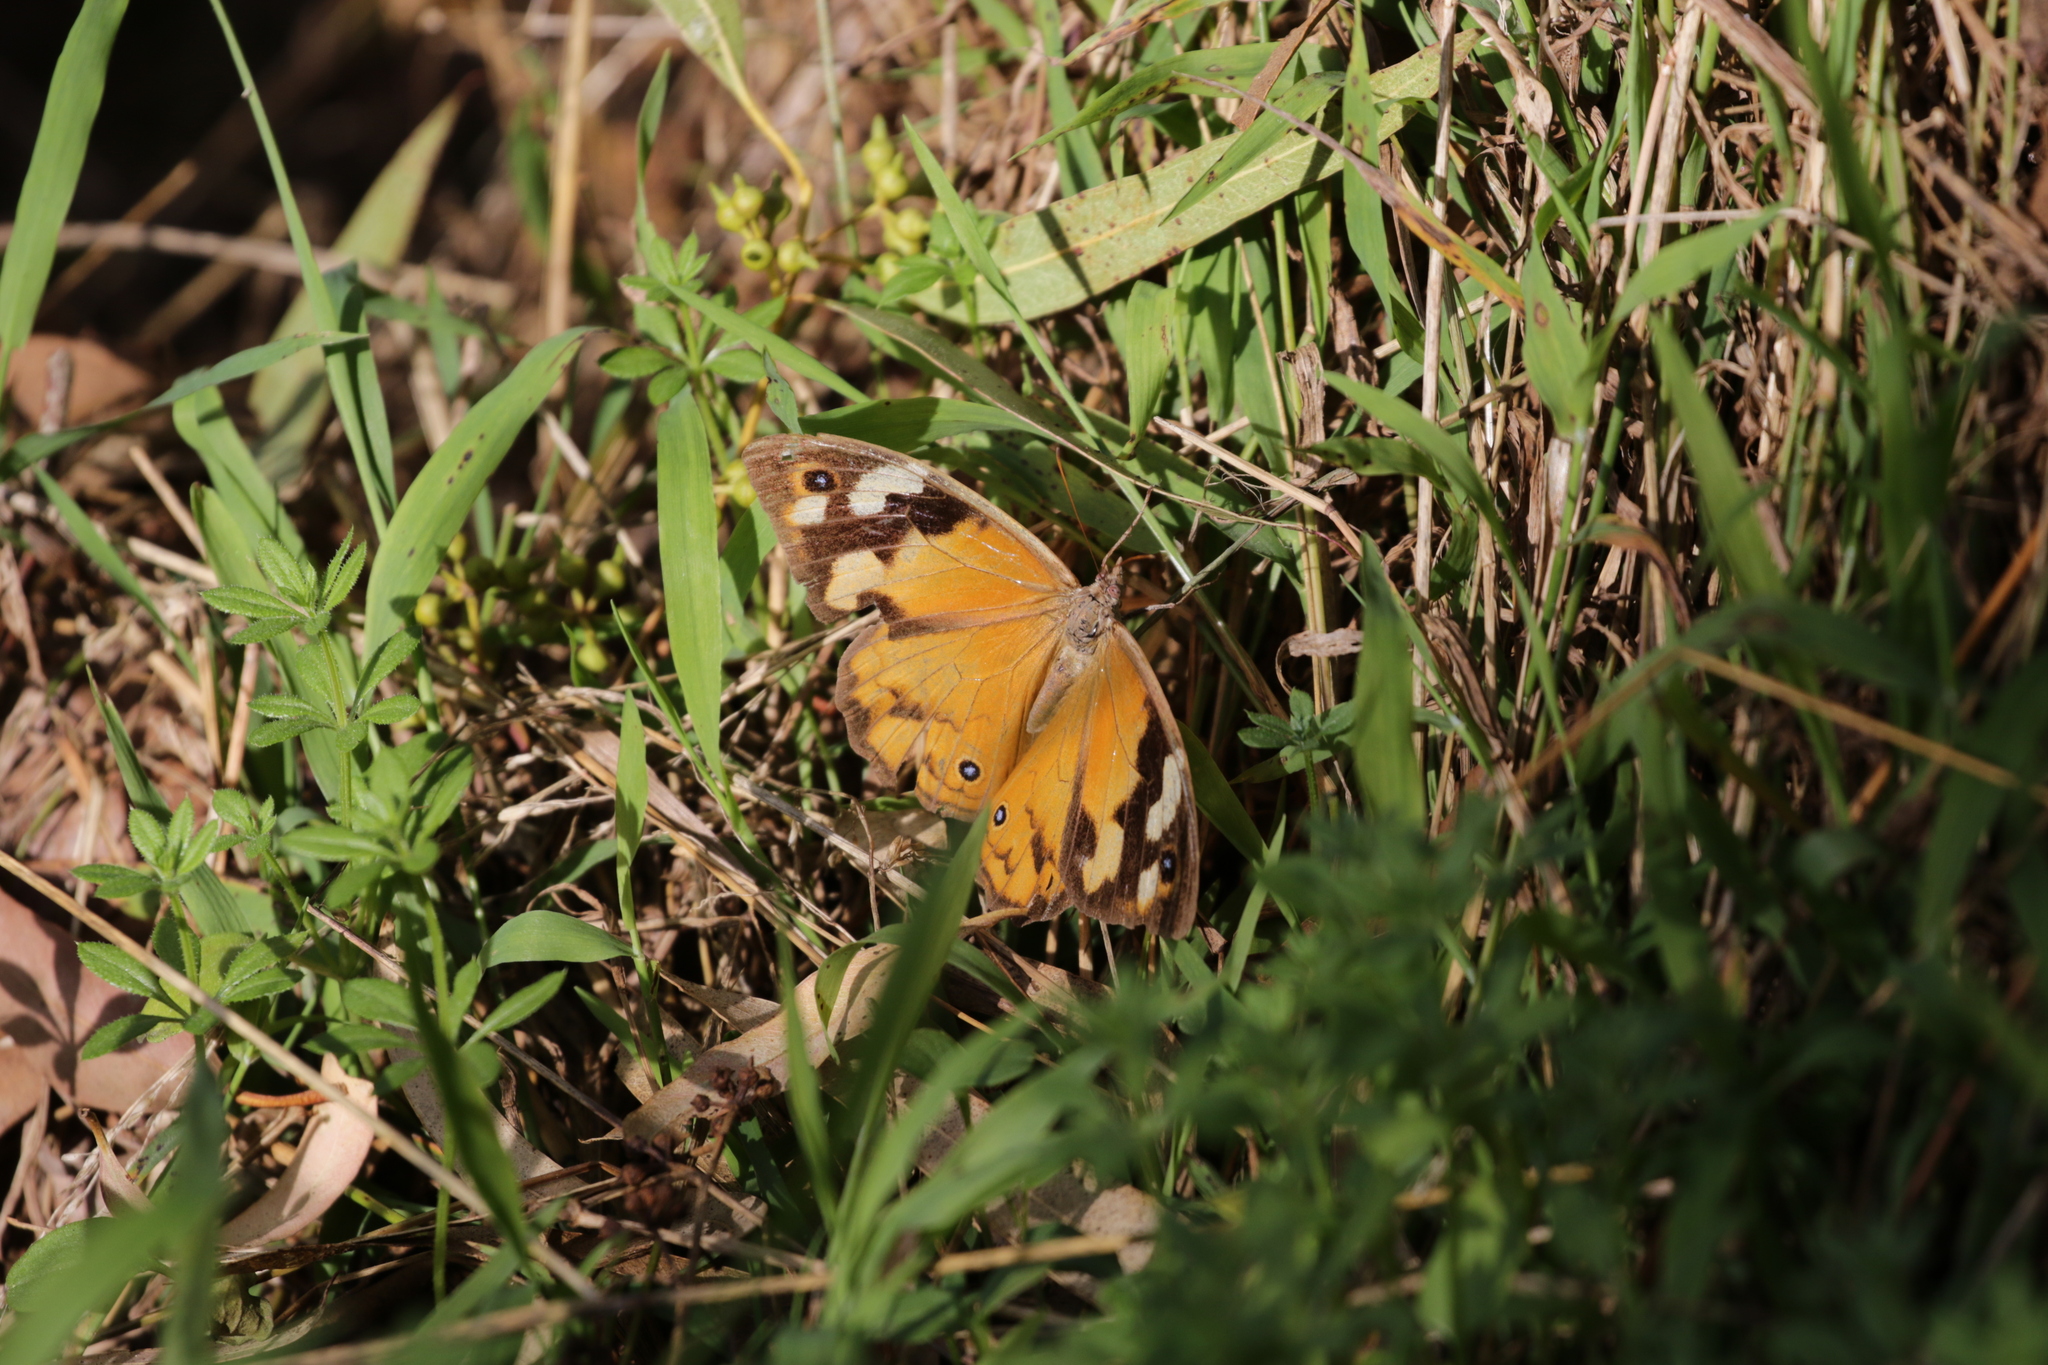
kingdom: Animalia
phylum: Arthropoda
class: Insecta
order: Lepidoptera
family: Nymphalidae
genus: Heteronympha
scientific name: Heteronympha merope
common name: Common brown
